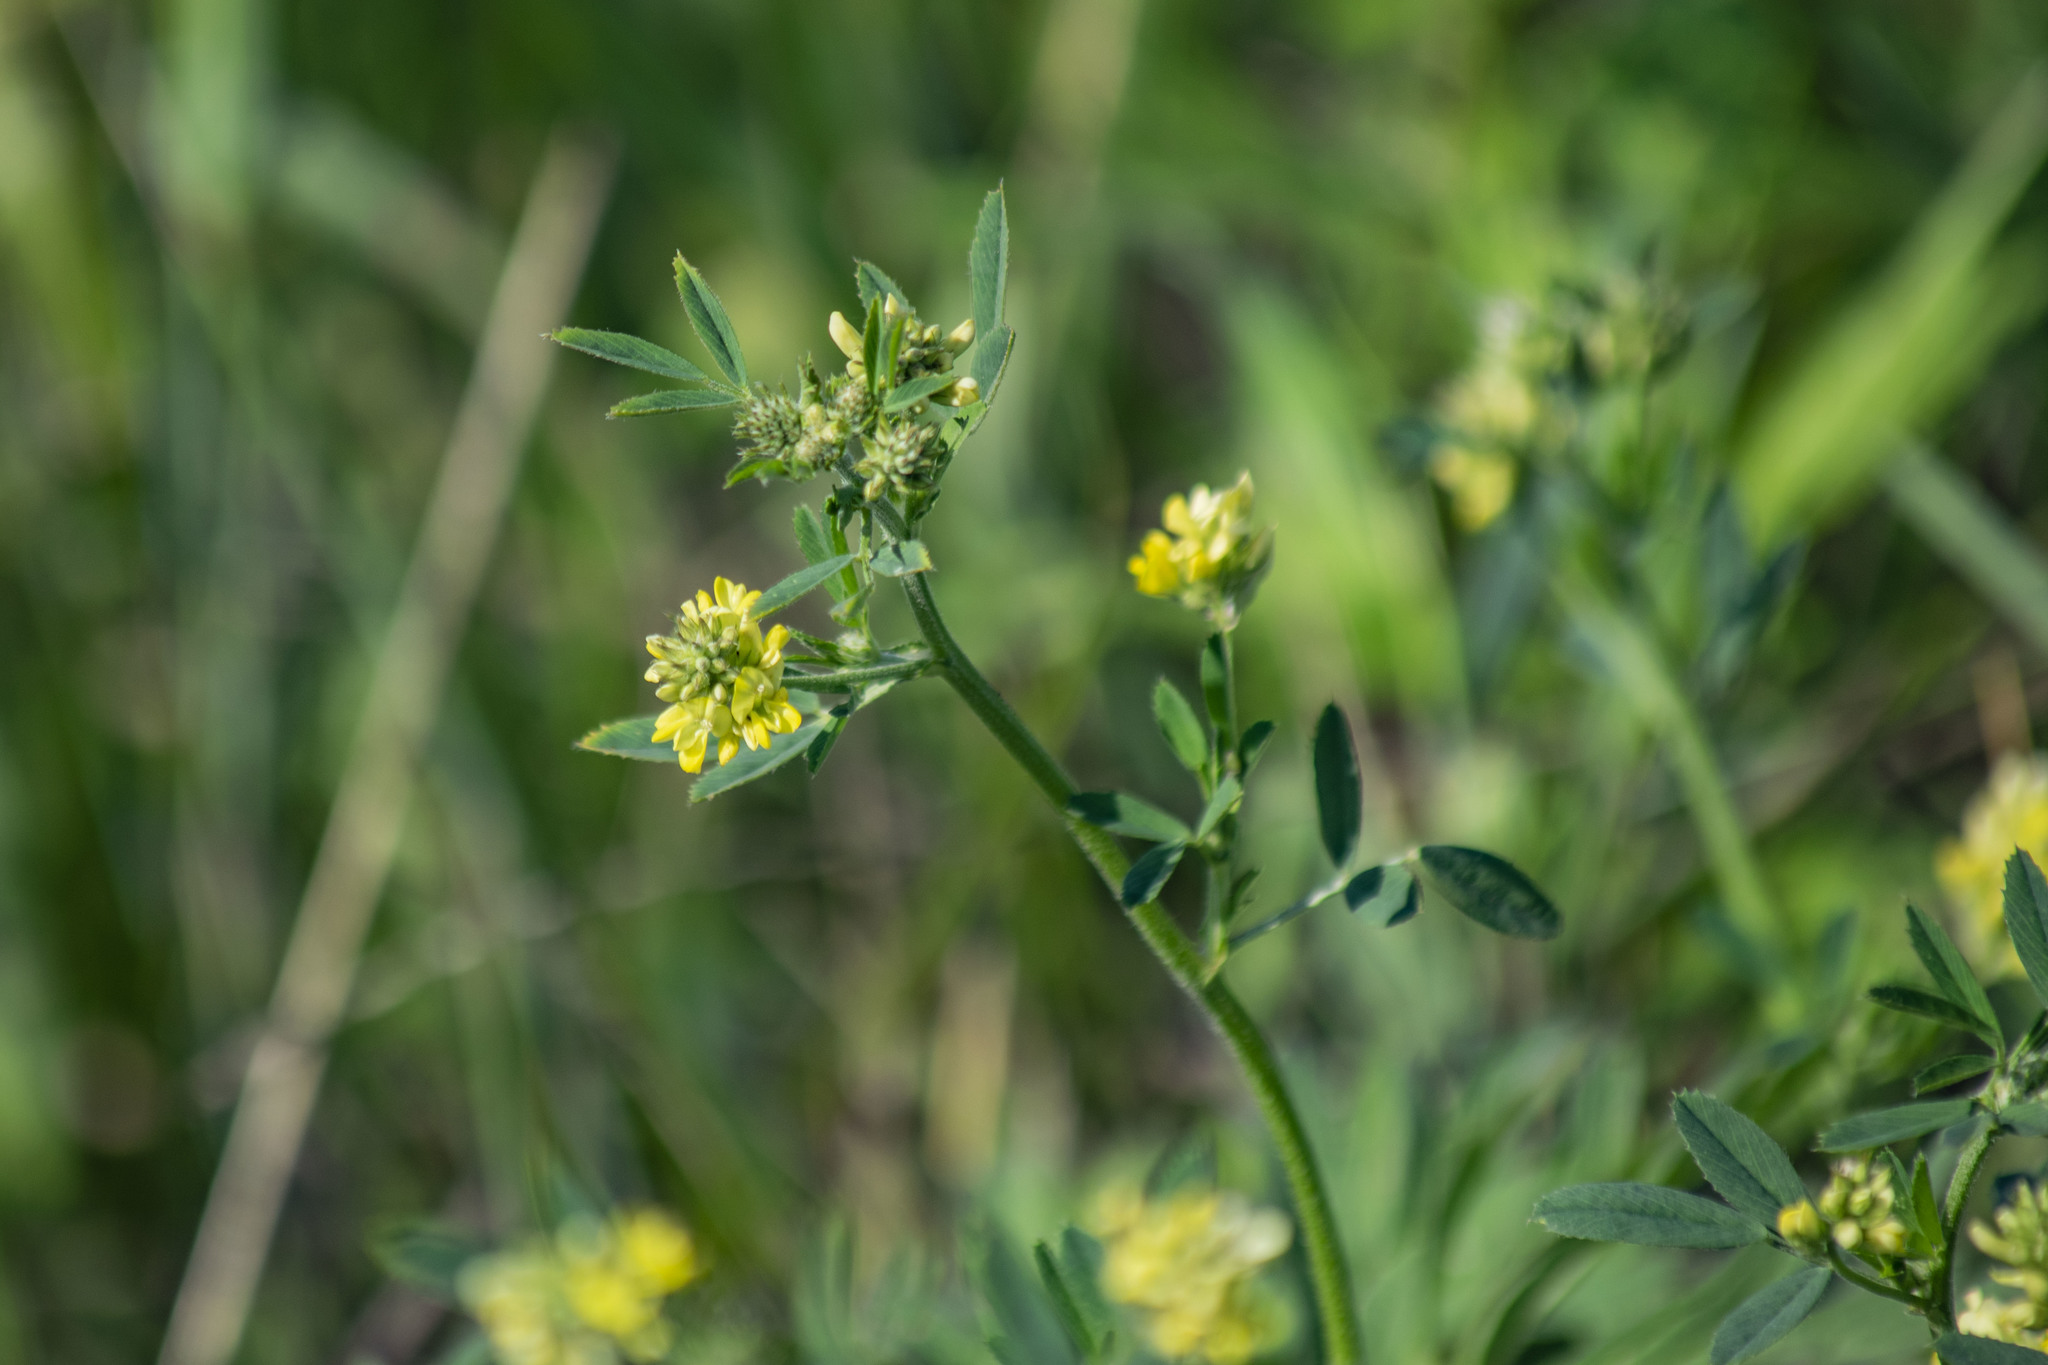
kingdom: Plantae
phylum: Tracheophyta
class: Magnoliopsida
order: Fabales
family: Fabaceae
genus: Medicago
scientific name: Medicago falcata
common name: Sickle medick
